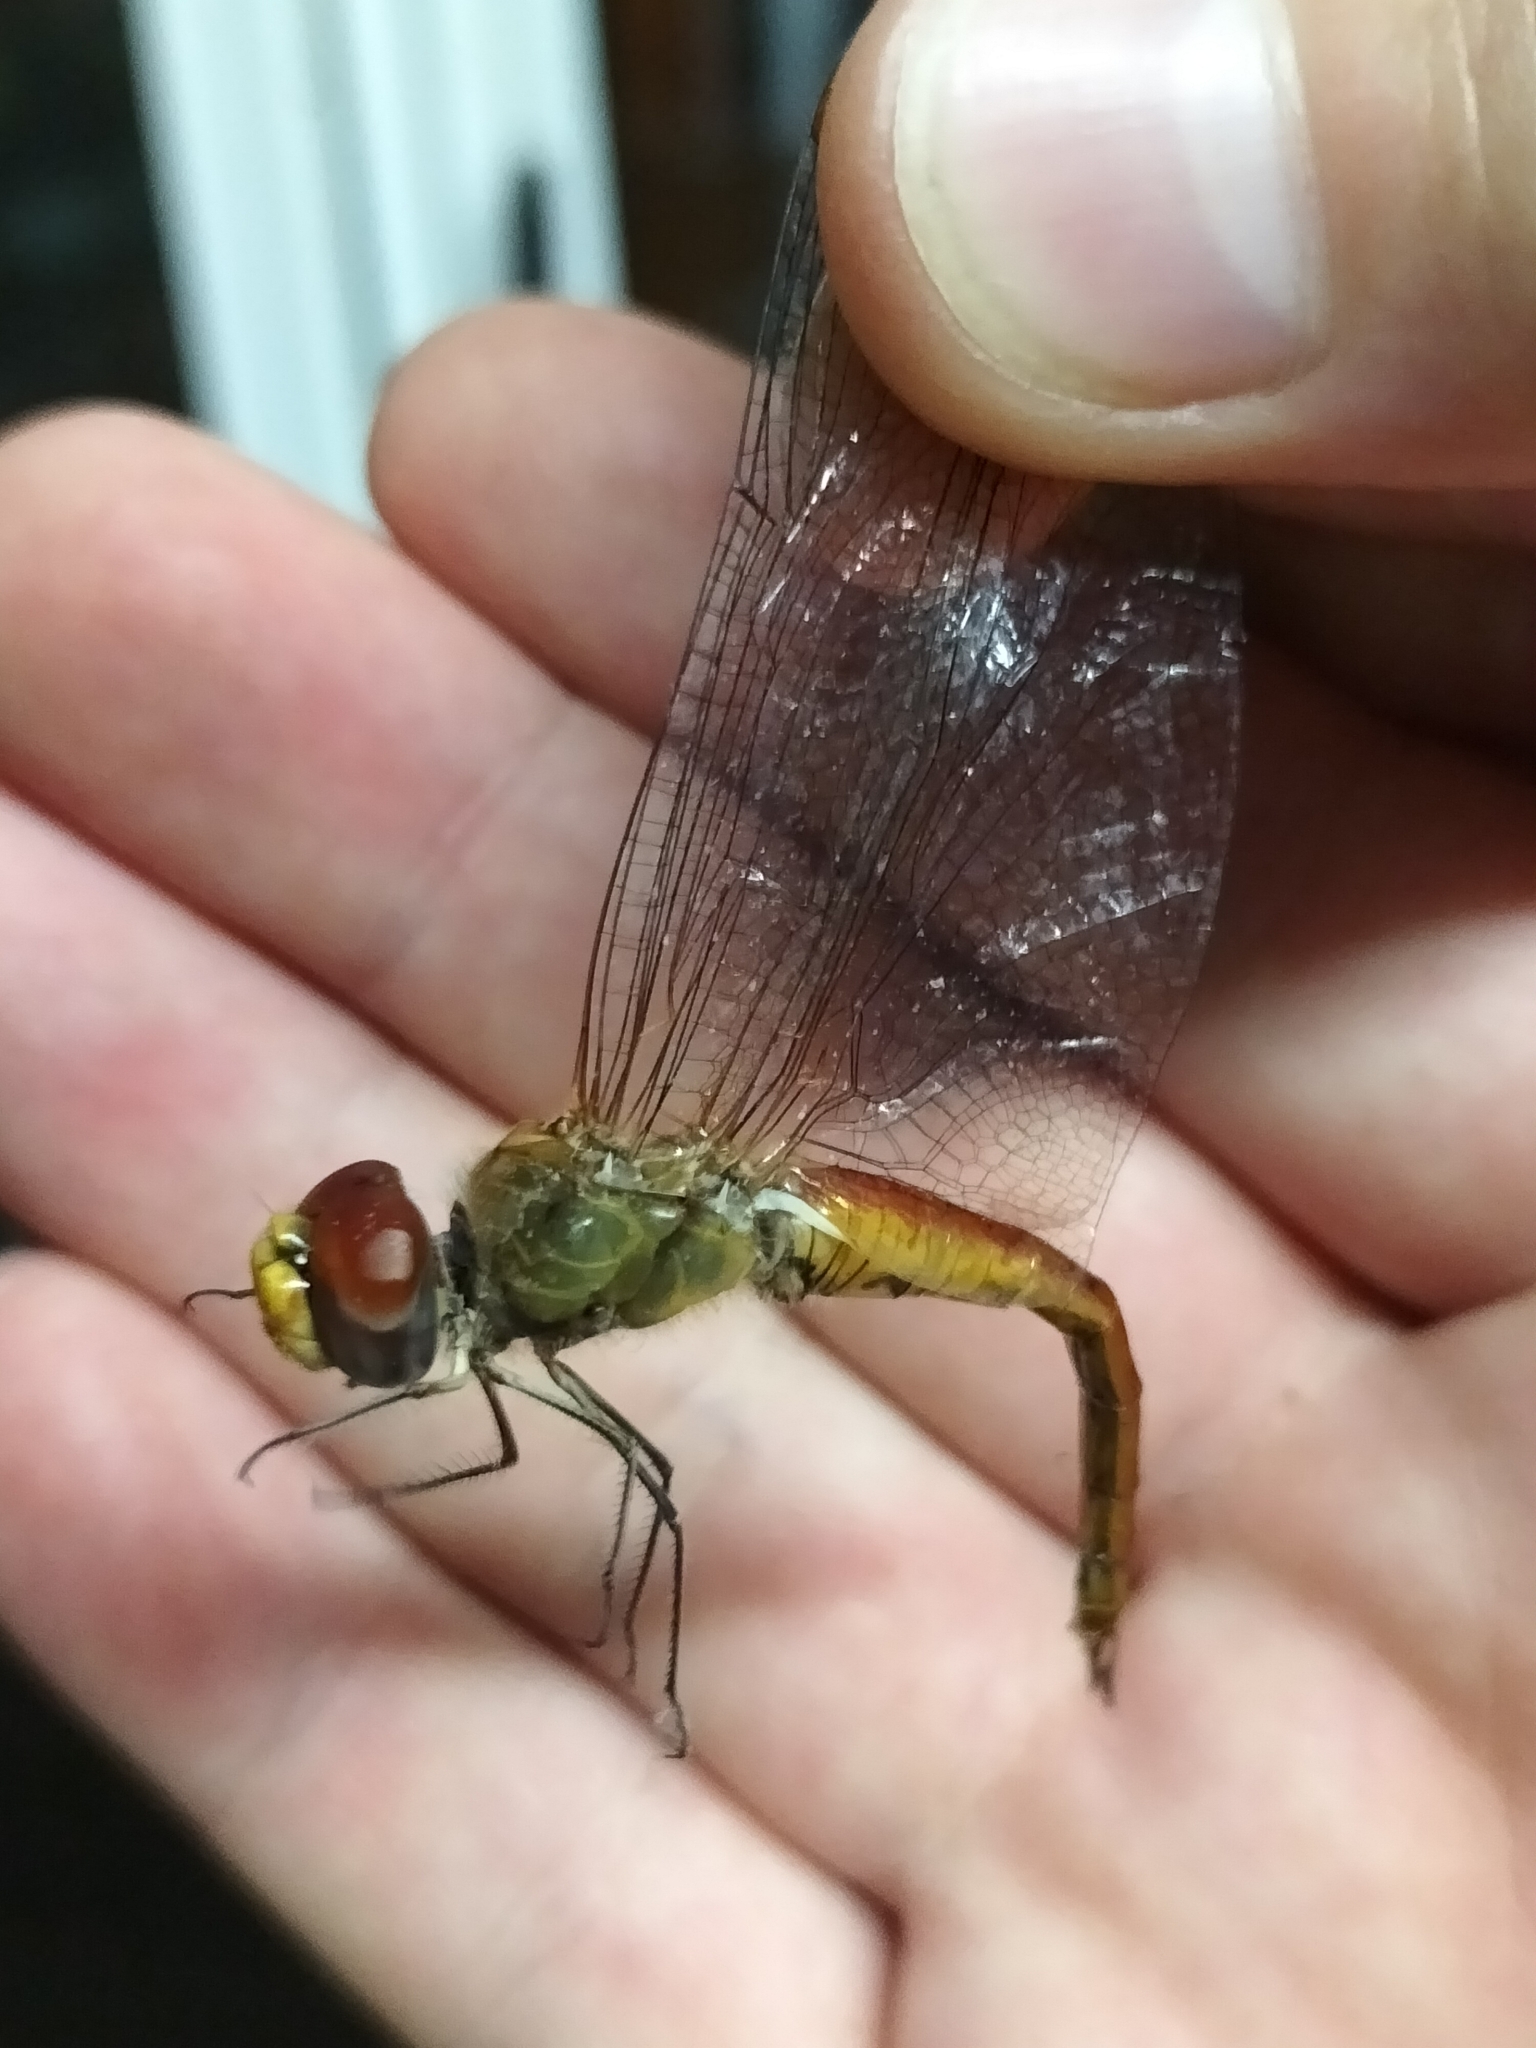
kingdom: Animalia
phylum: Arthropoda
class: Insecta
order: Odonata
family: Libellulidae
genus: Pantala
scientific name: Pantala flavescens
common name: Wandering glider
